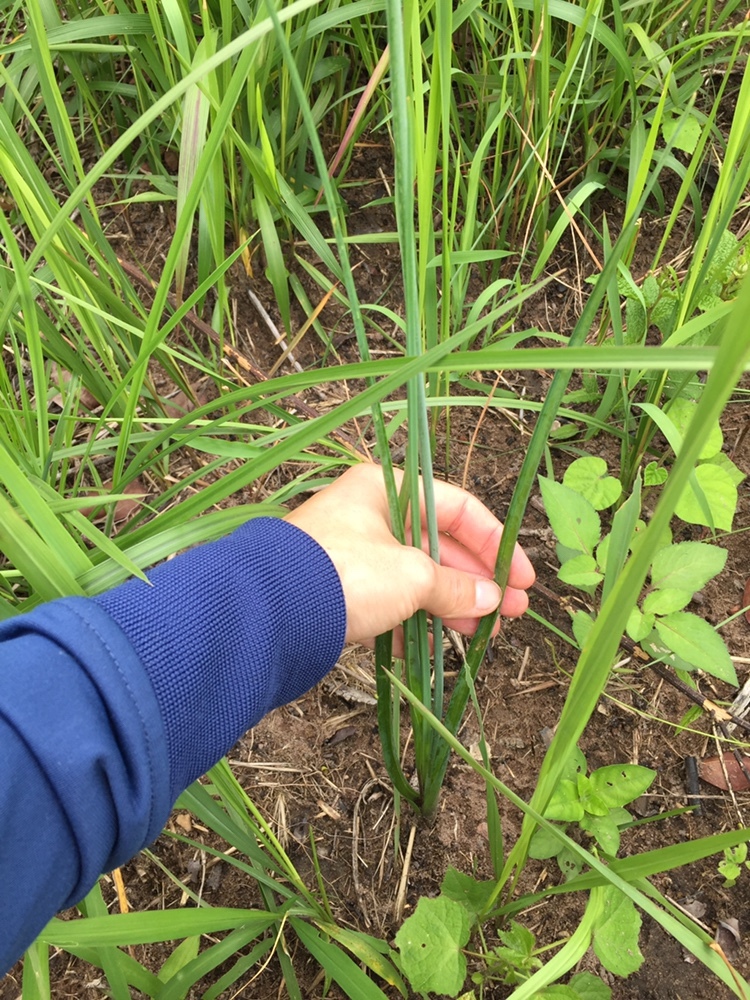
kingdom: Plantae
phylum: Tracheophyta
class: Liliopsida
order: Asparagales
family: Asparagaceae
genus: Dipcadi
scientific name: Dipcadi marlothii
